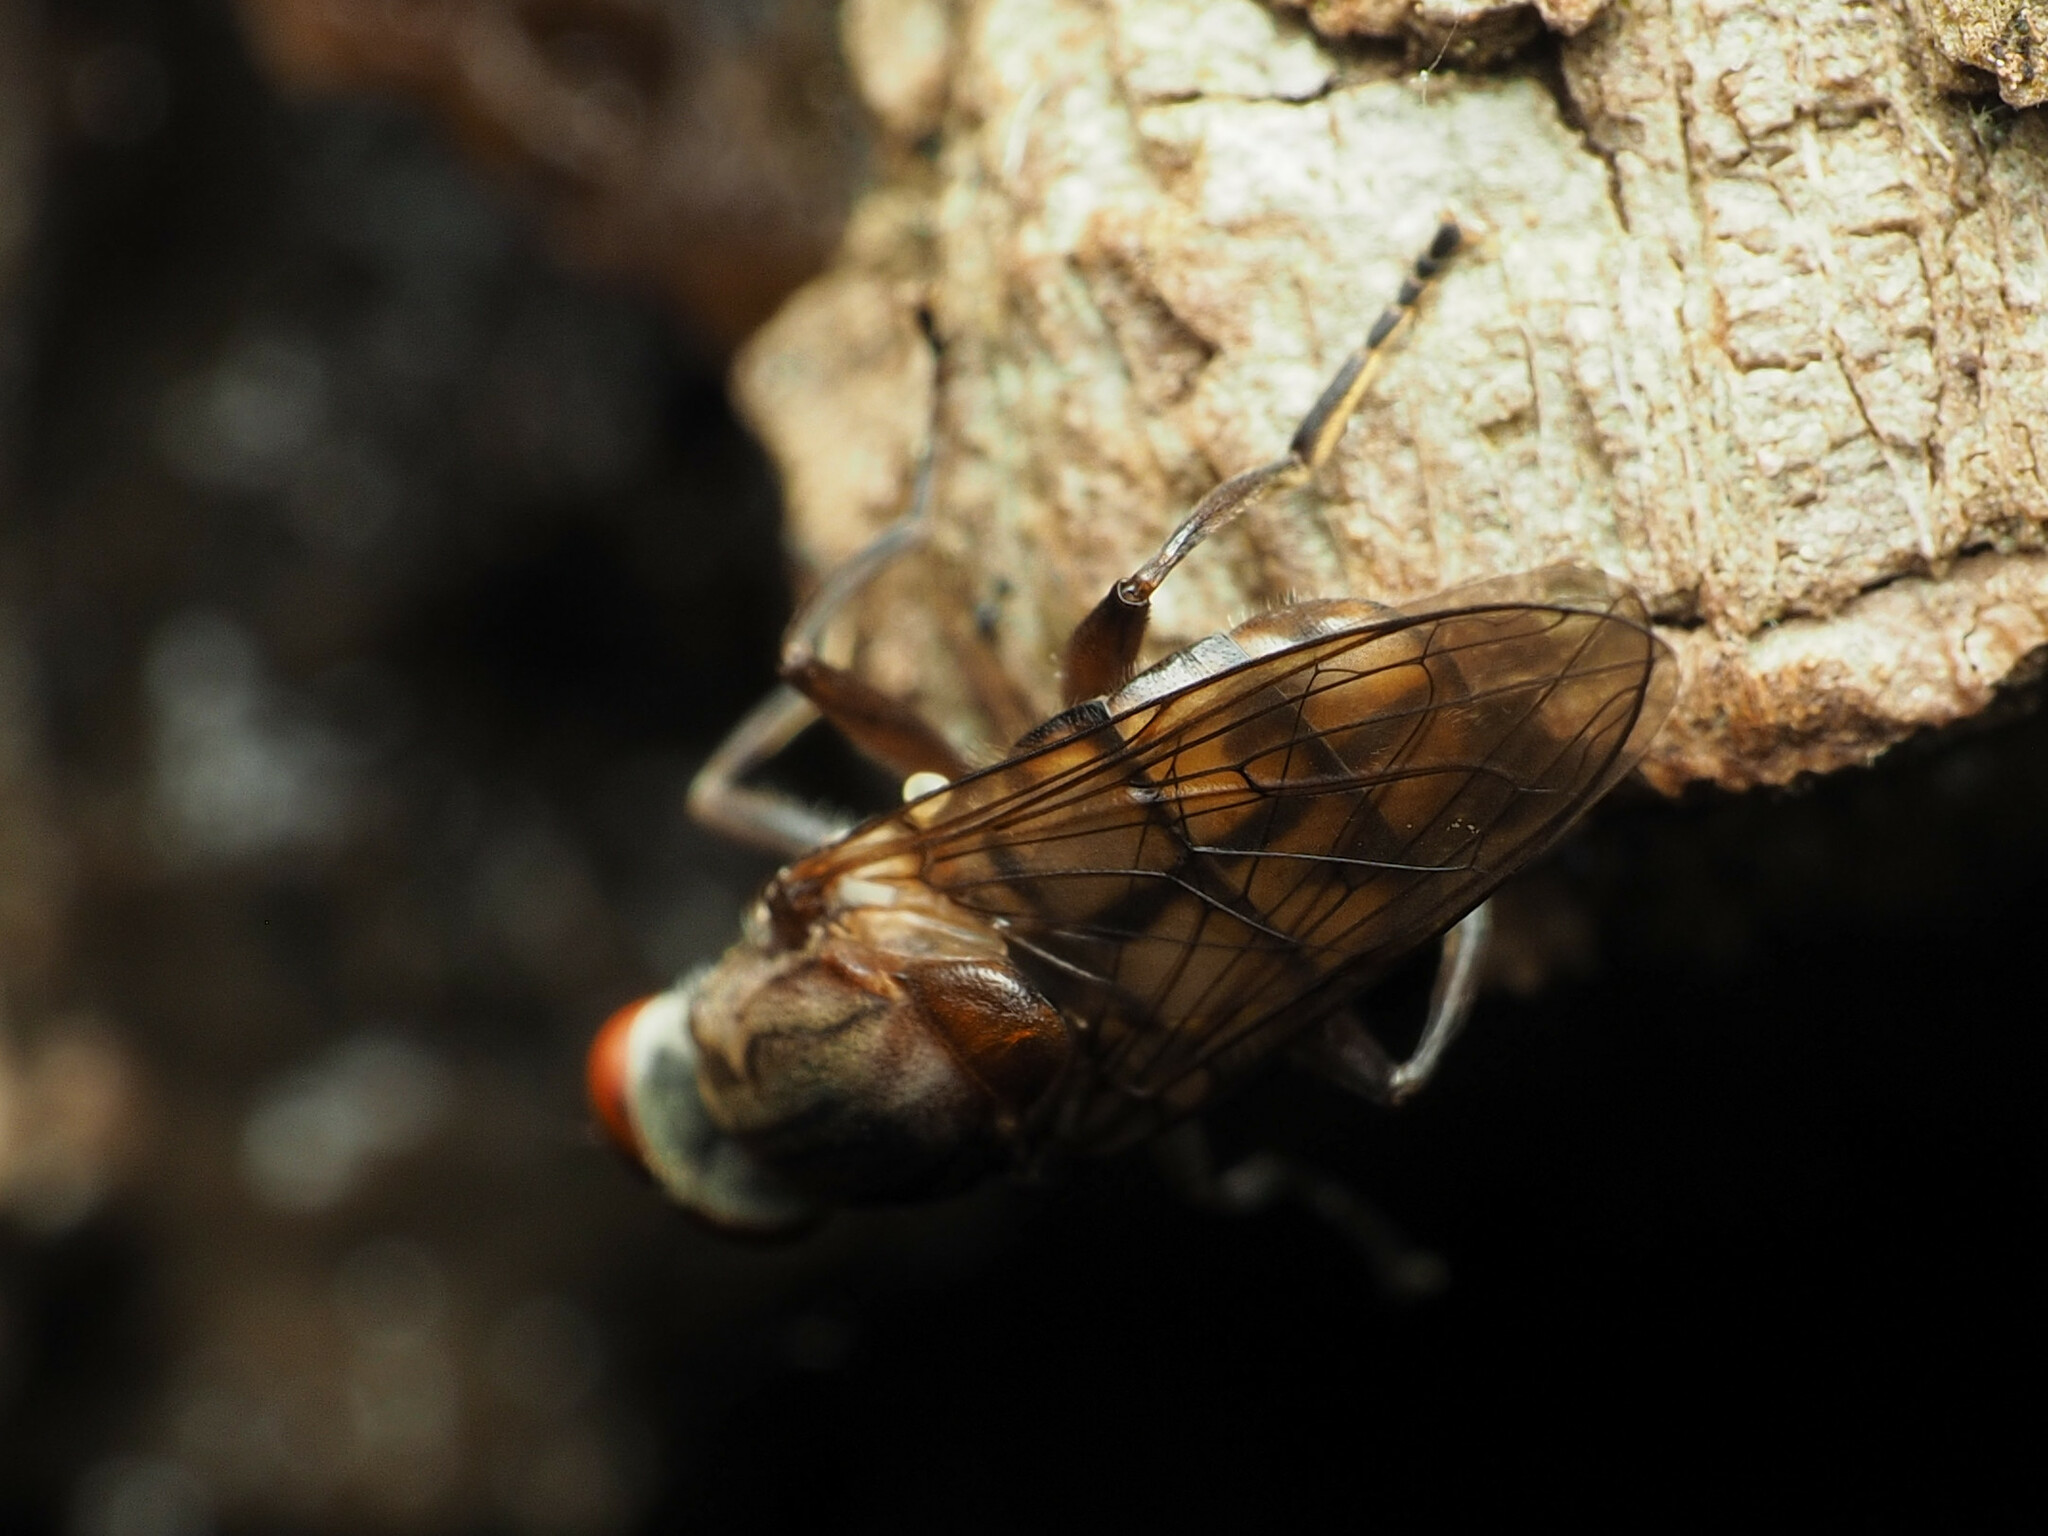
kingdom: Animalia
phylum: Arthropoda
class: Insecta
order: Diptera
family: Syrphidae
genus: Brachyopa
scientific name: Brachyopa vacua
